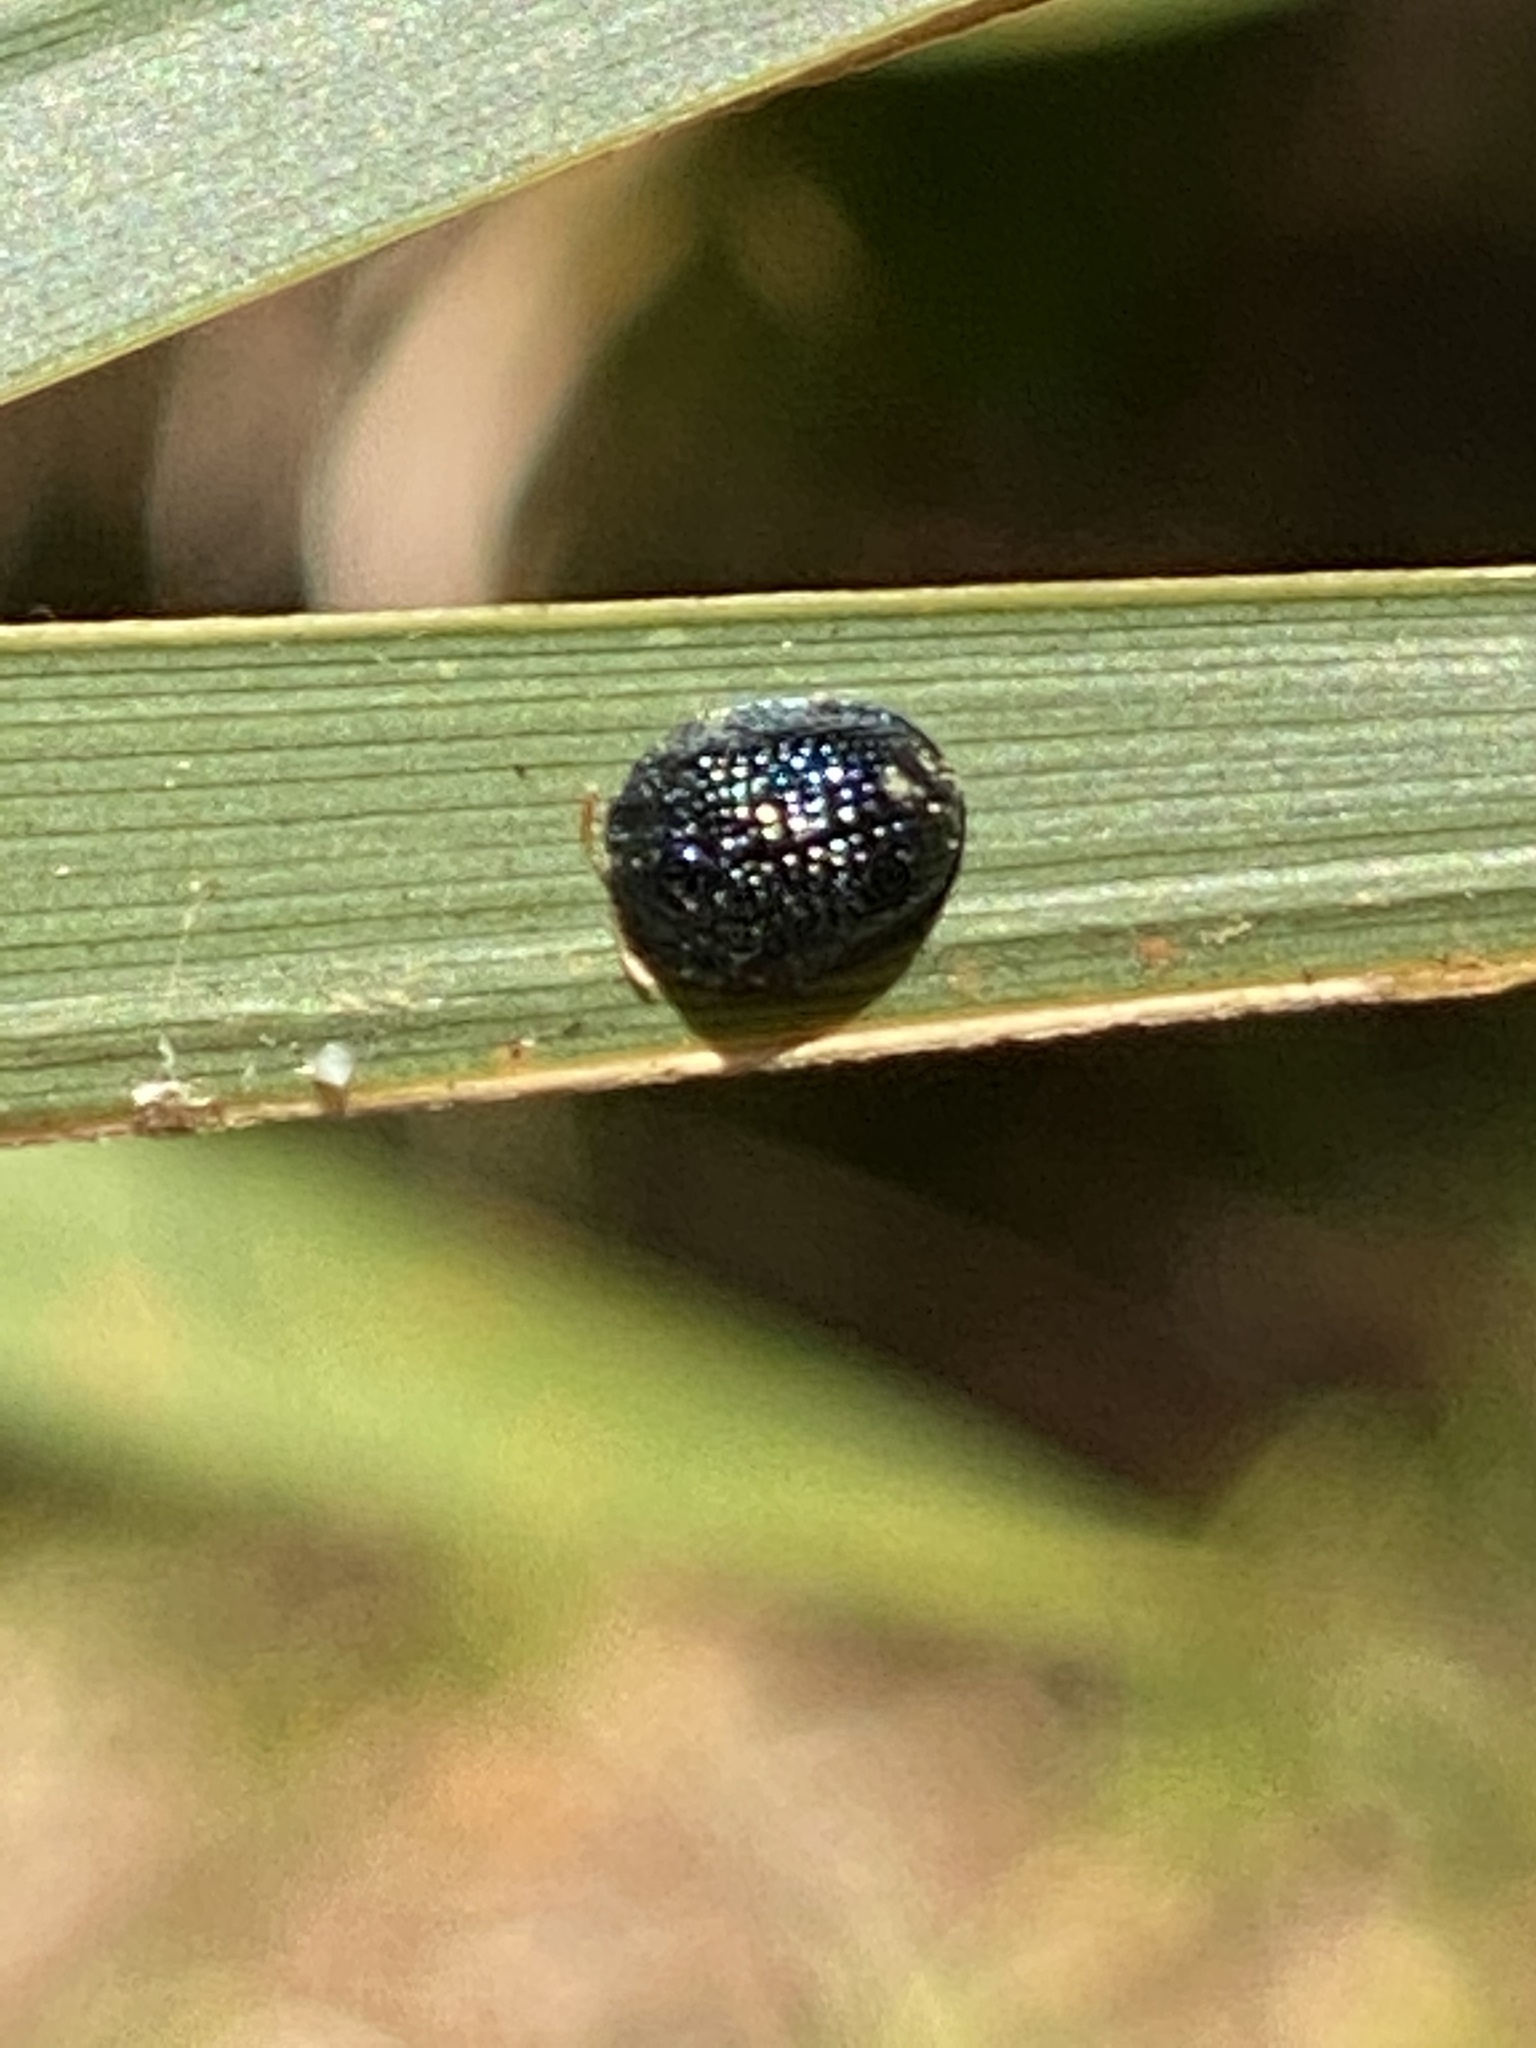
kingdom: Animalia
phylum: Arthropoda
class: Insecta
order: Coleoptera
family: Chrysomelidae
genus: Hemisphaerota
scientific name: Hemisphaerota cyanea
